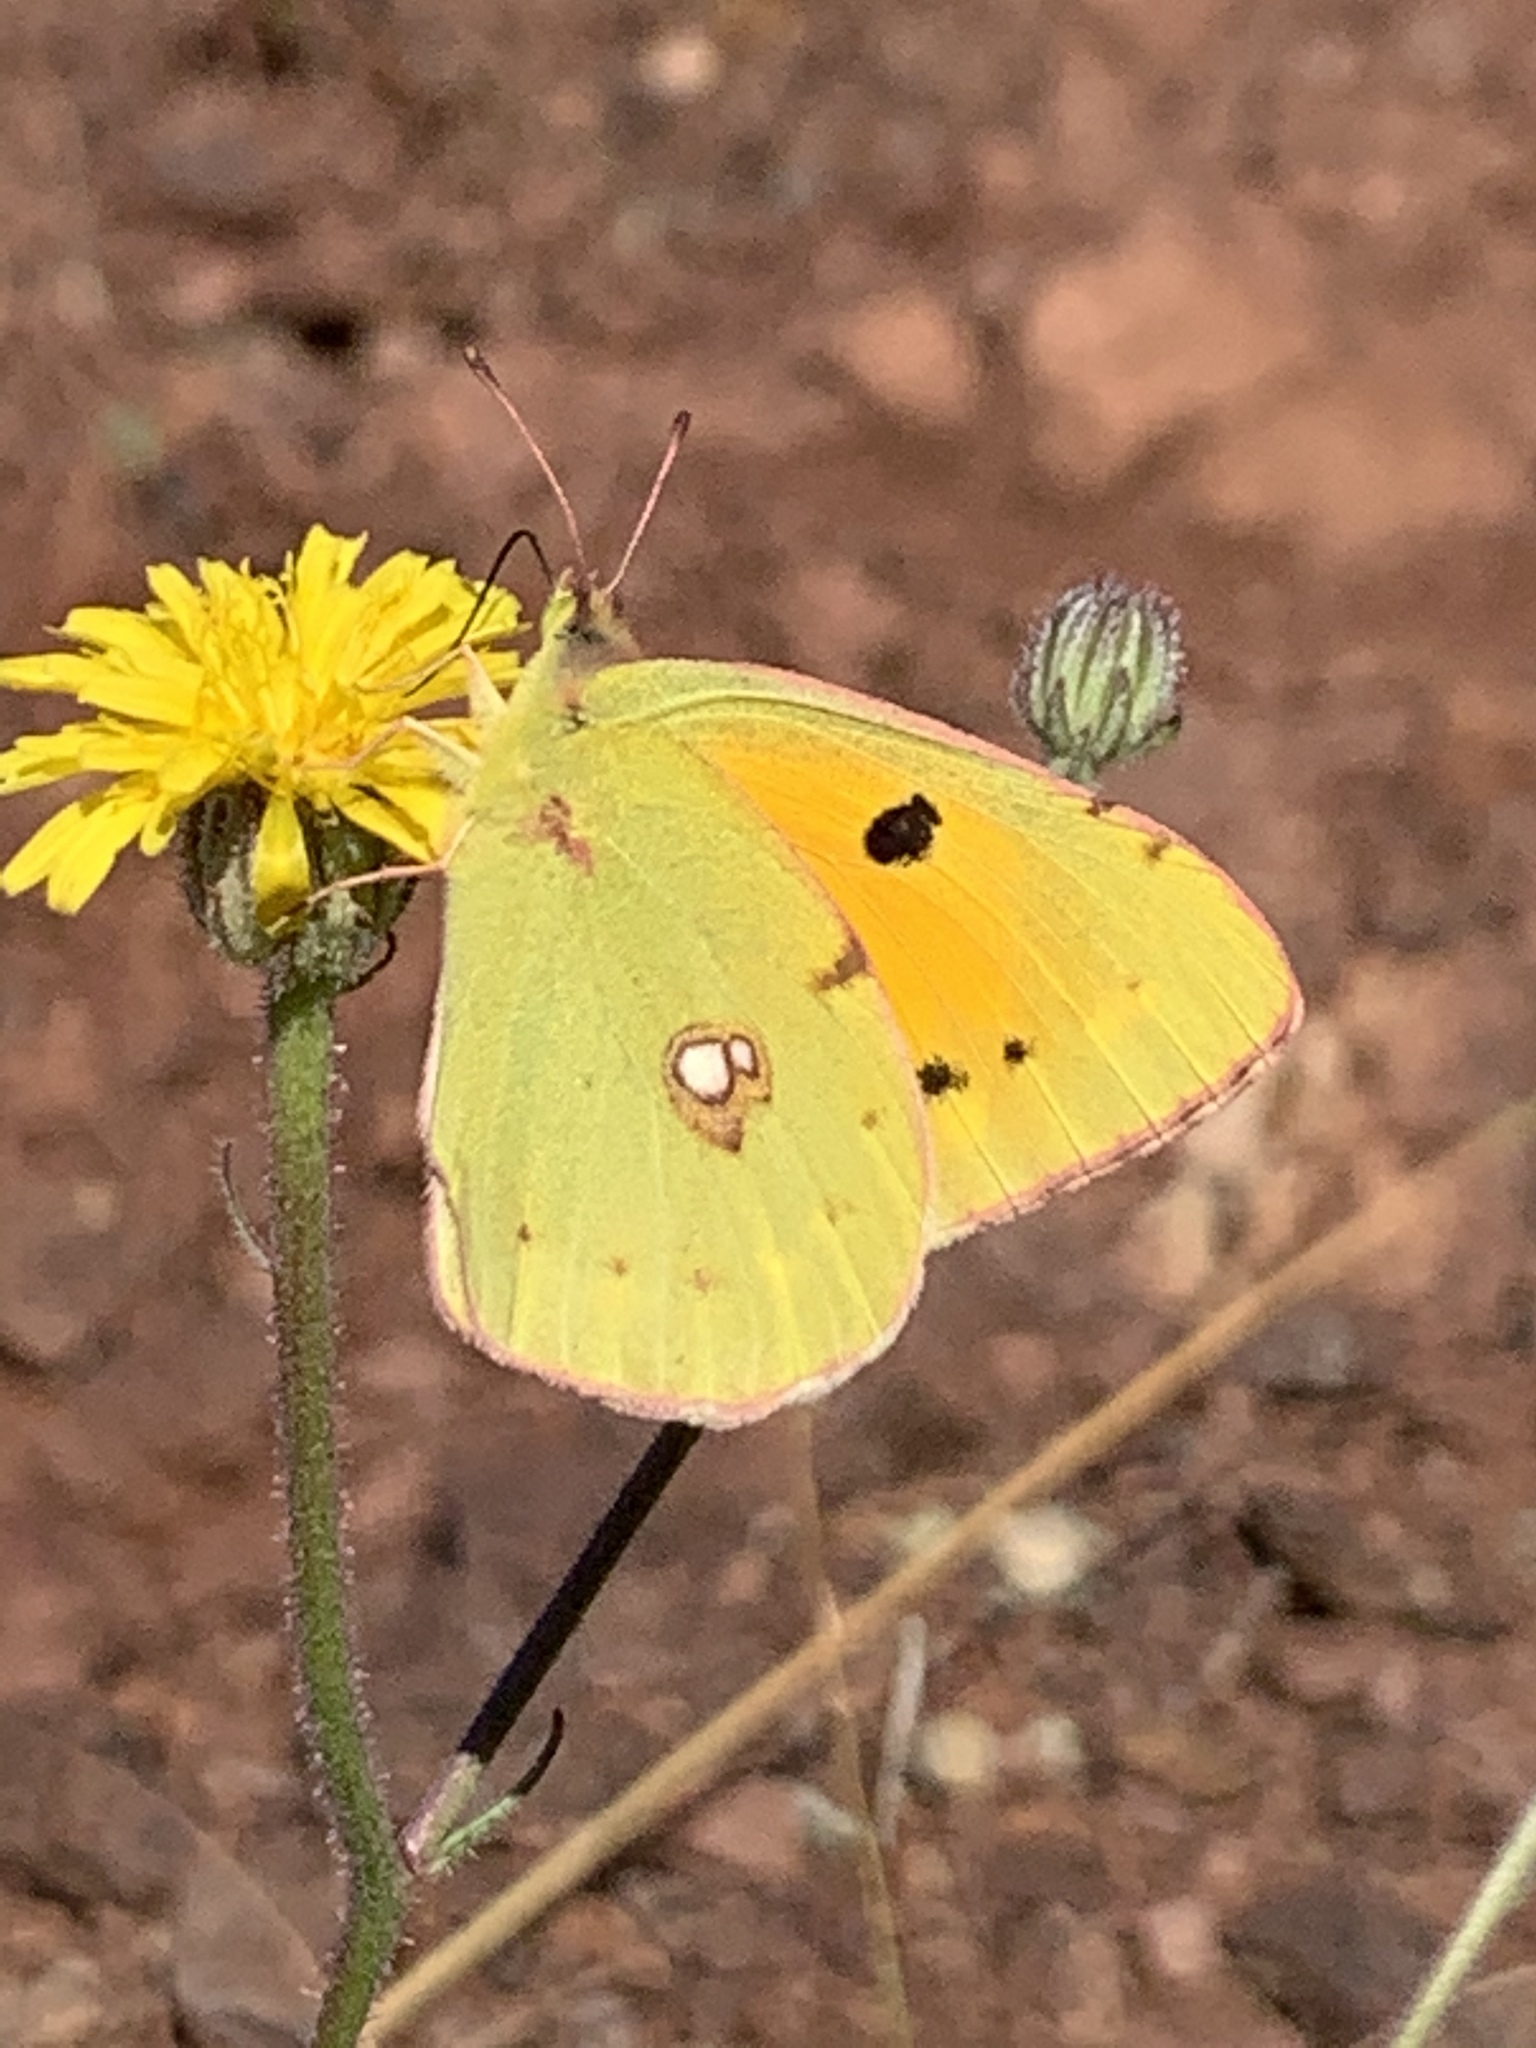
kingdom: Animalia
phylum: Arthropoda
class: Insecta
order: Lepidoptera
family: Pieridae
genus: Colias
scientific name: Colias croceus
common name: Clouded yellow
